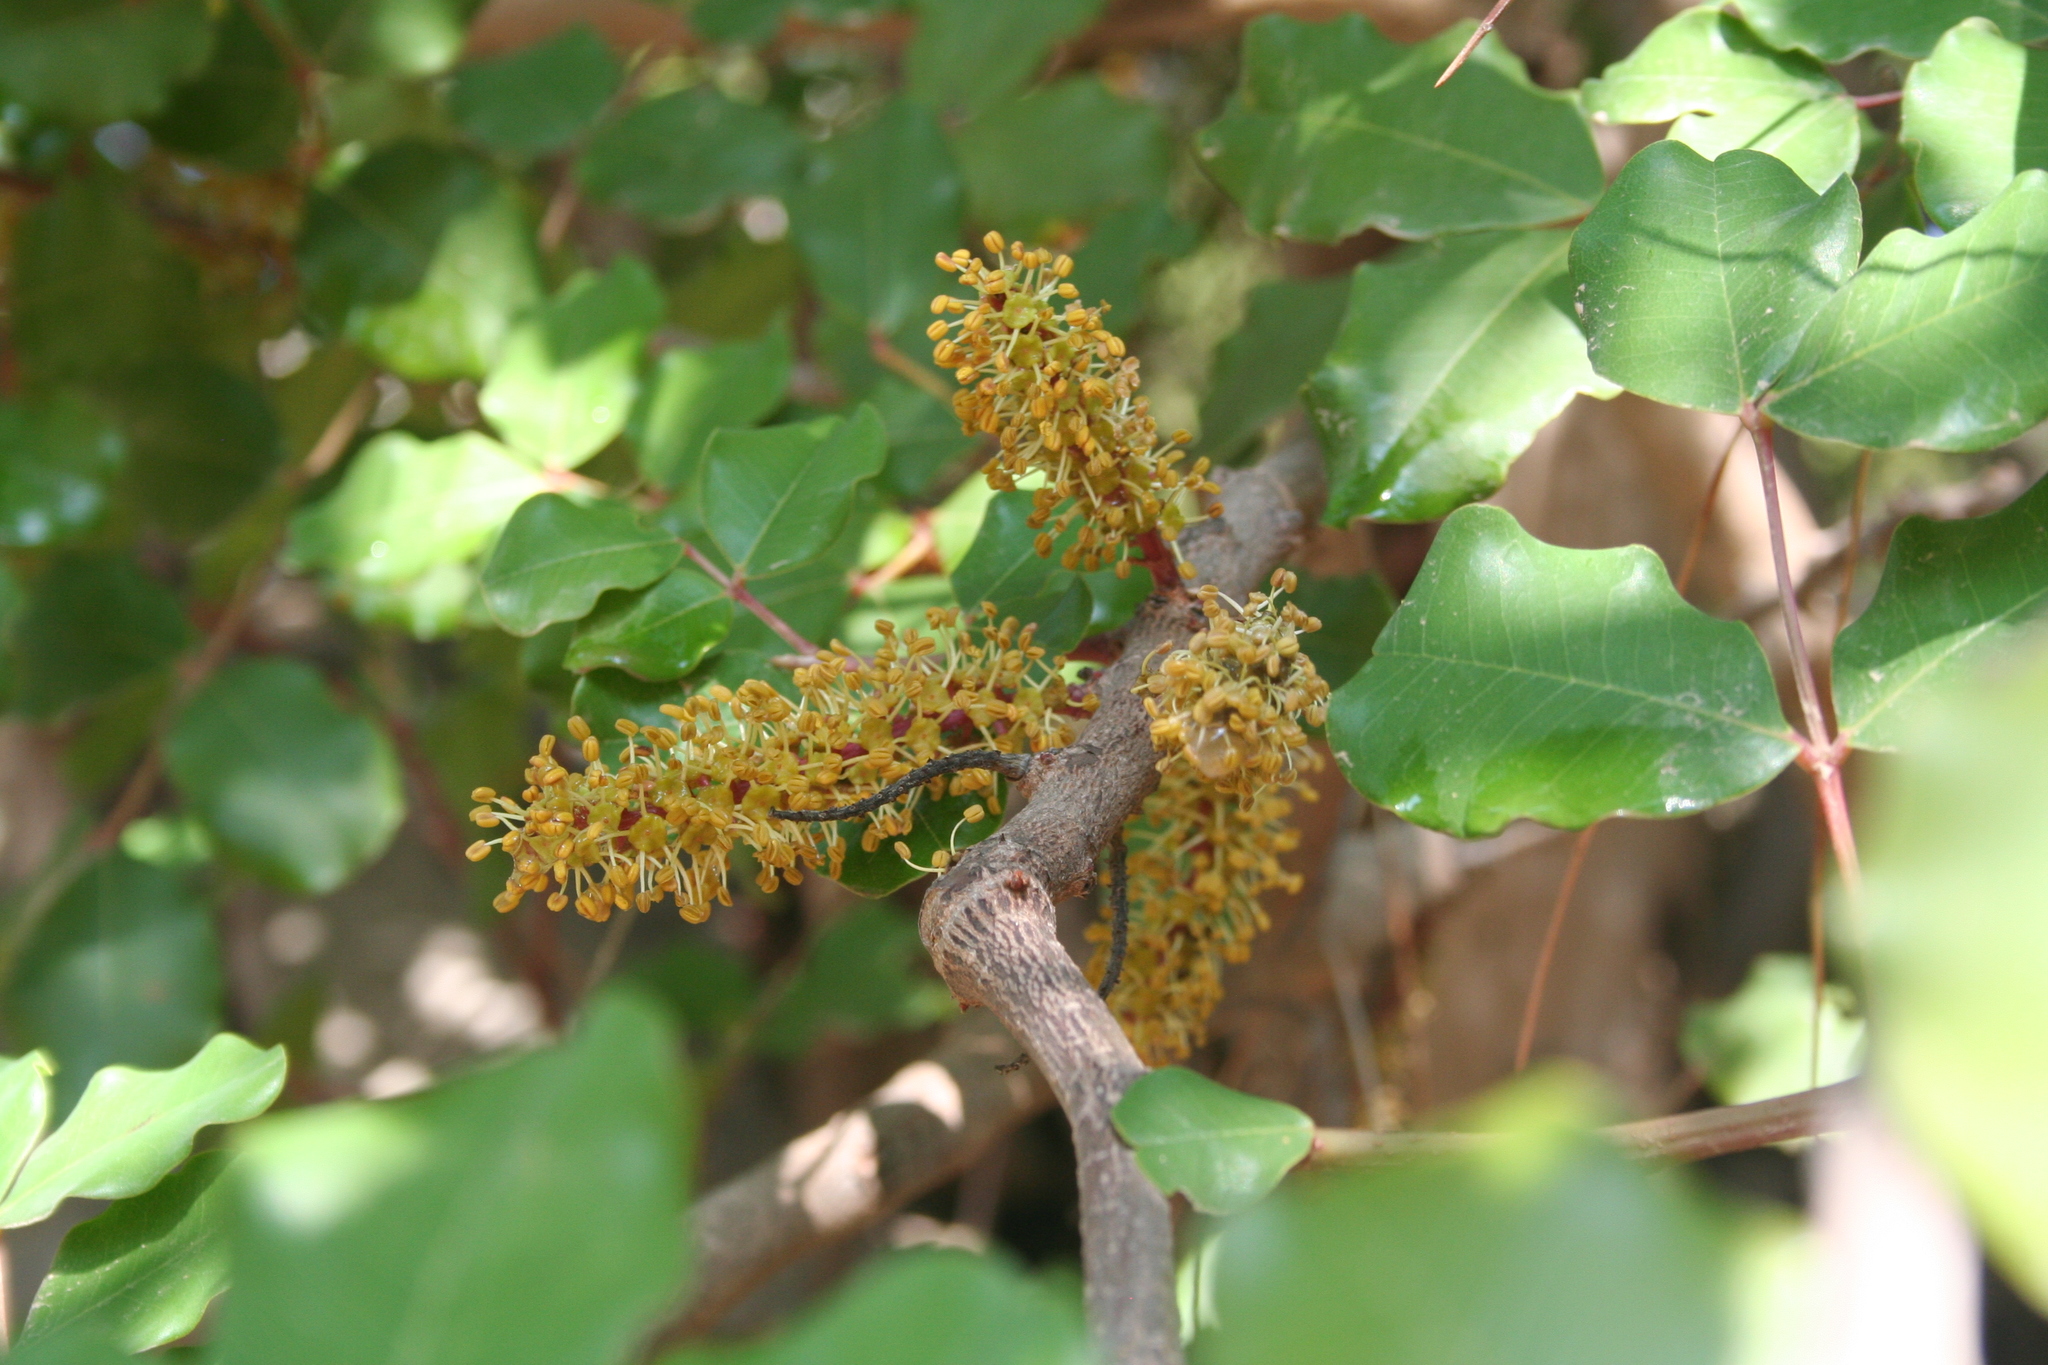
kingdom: Plantae
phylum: Tracheophyta
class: Magnoliopsida
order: Fabales
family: Fabaceae
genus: Ceratonia
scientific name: Ceratonia siliqua
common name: Carob
